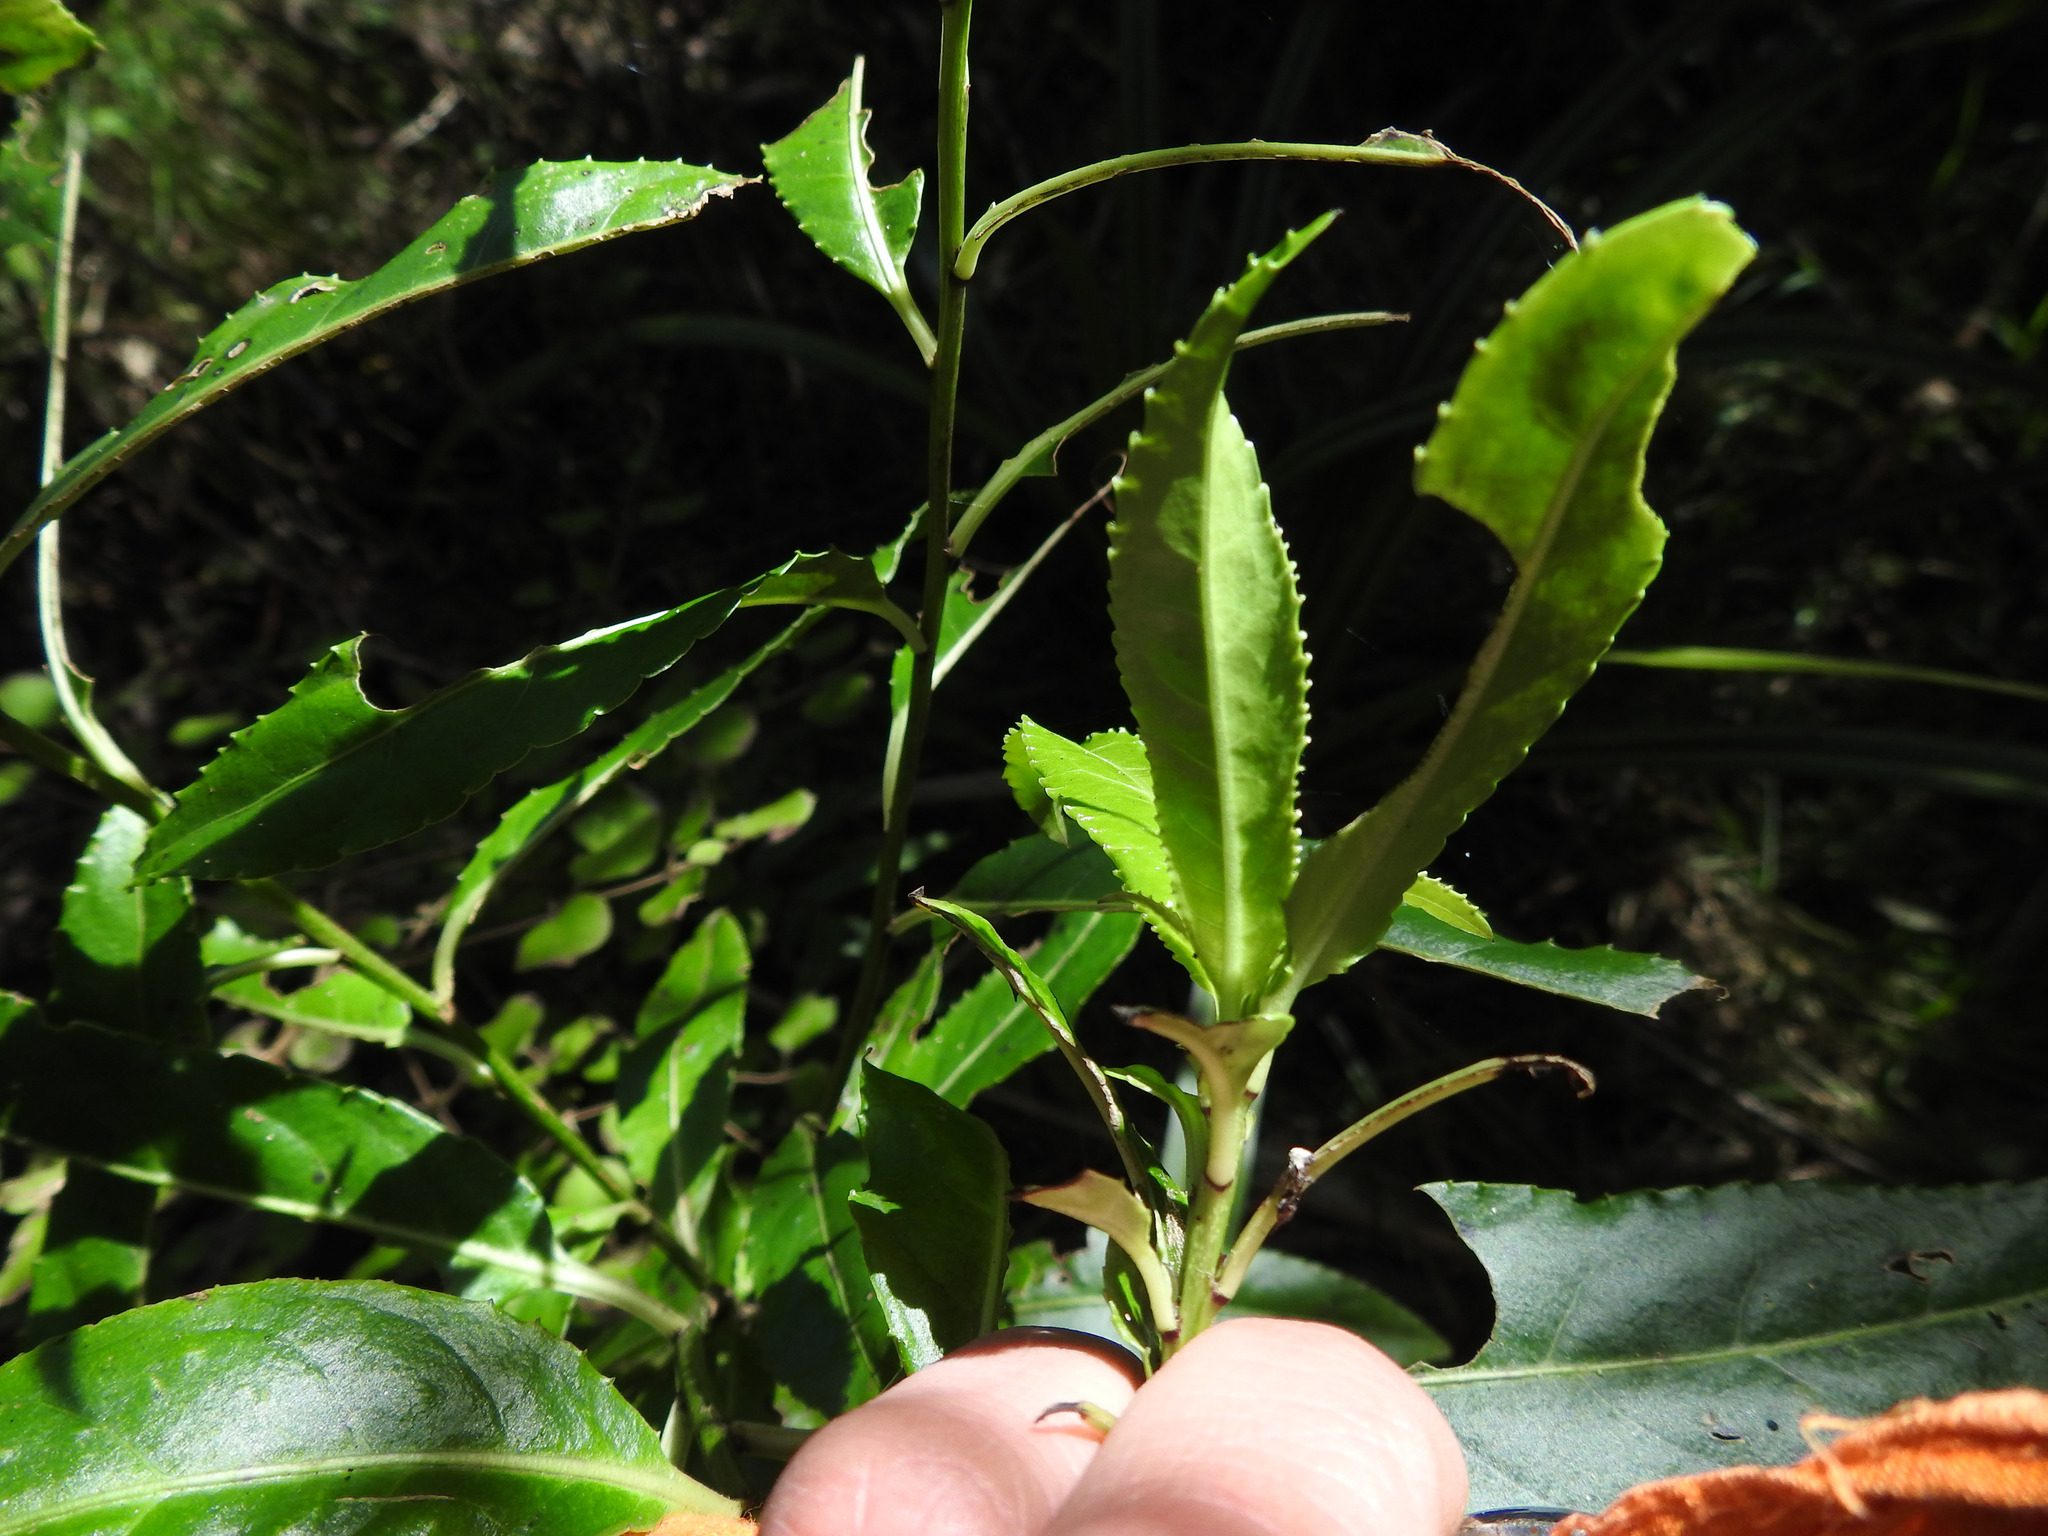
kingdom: Plantae
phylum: Tracheophyta
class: Magnoliopsida
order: Malpighiales
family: Violaceae
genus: Melicytus
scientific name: Melicytus lanceolatus
